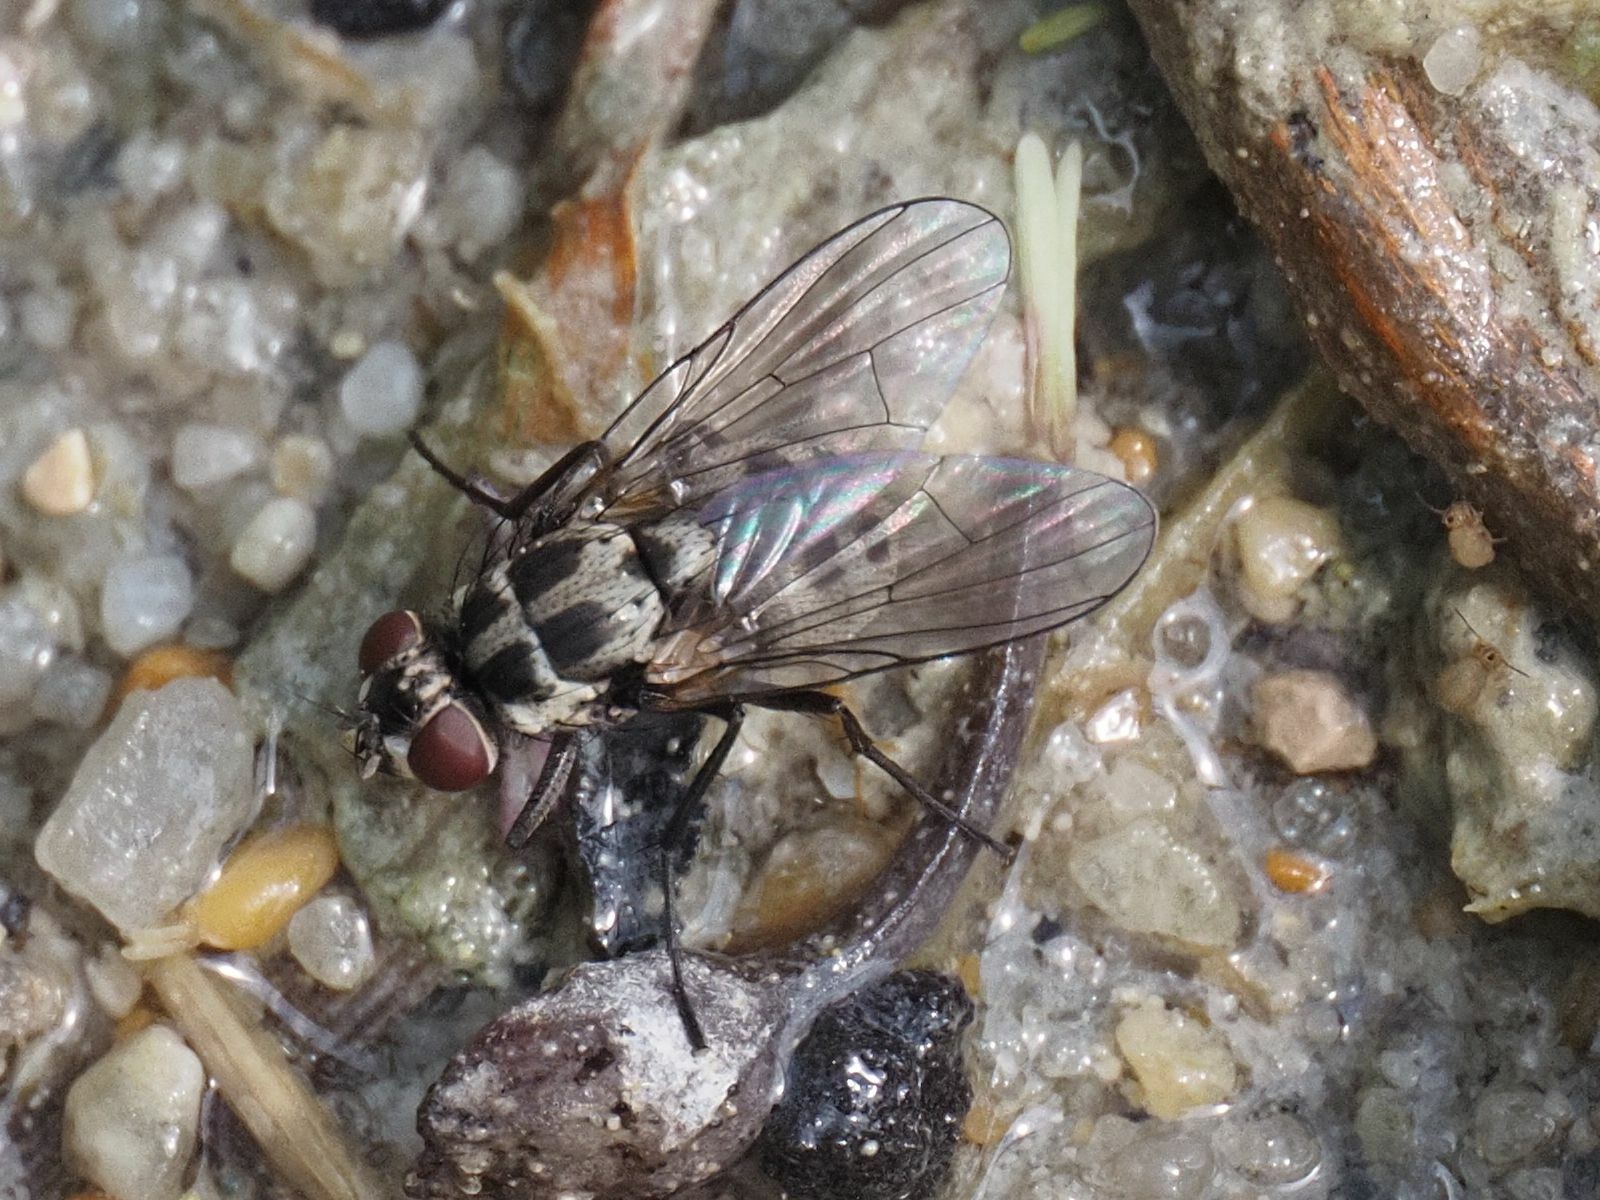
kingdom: Animalia
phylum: Arthropoda
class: Insecta
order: Diptera
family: Muscidae
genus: Limnophora
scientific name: Limnophora tigrina
